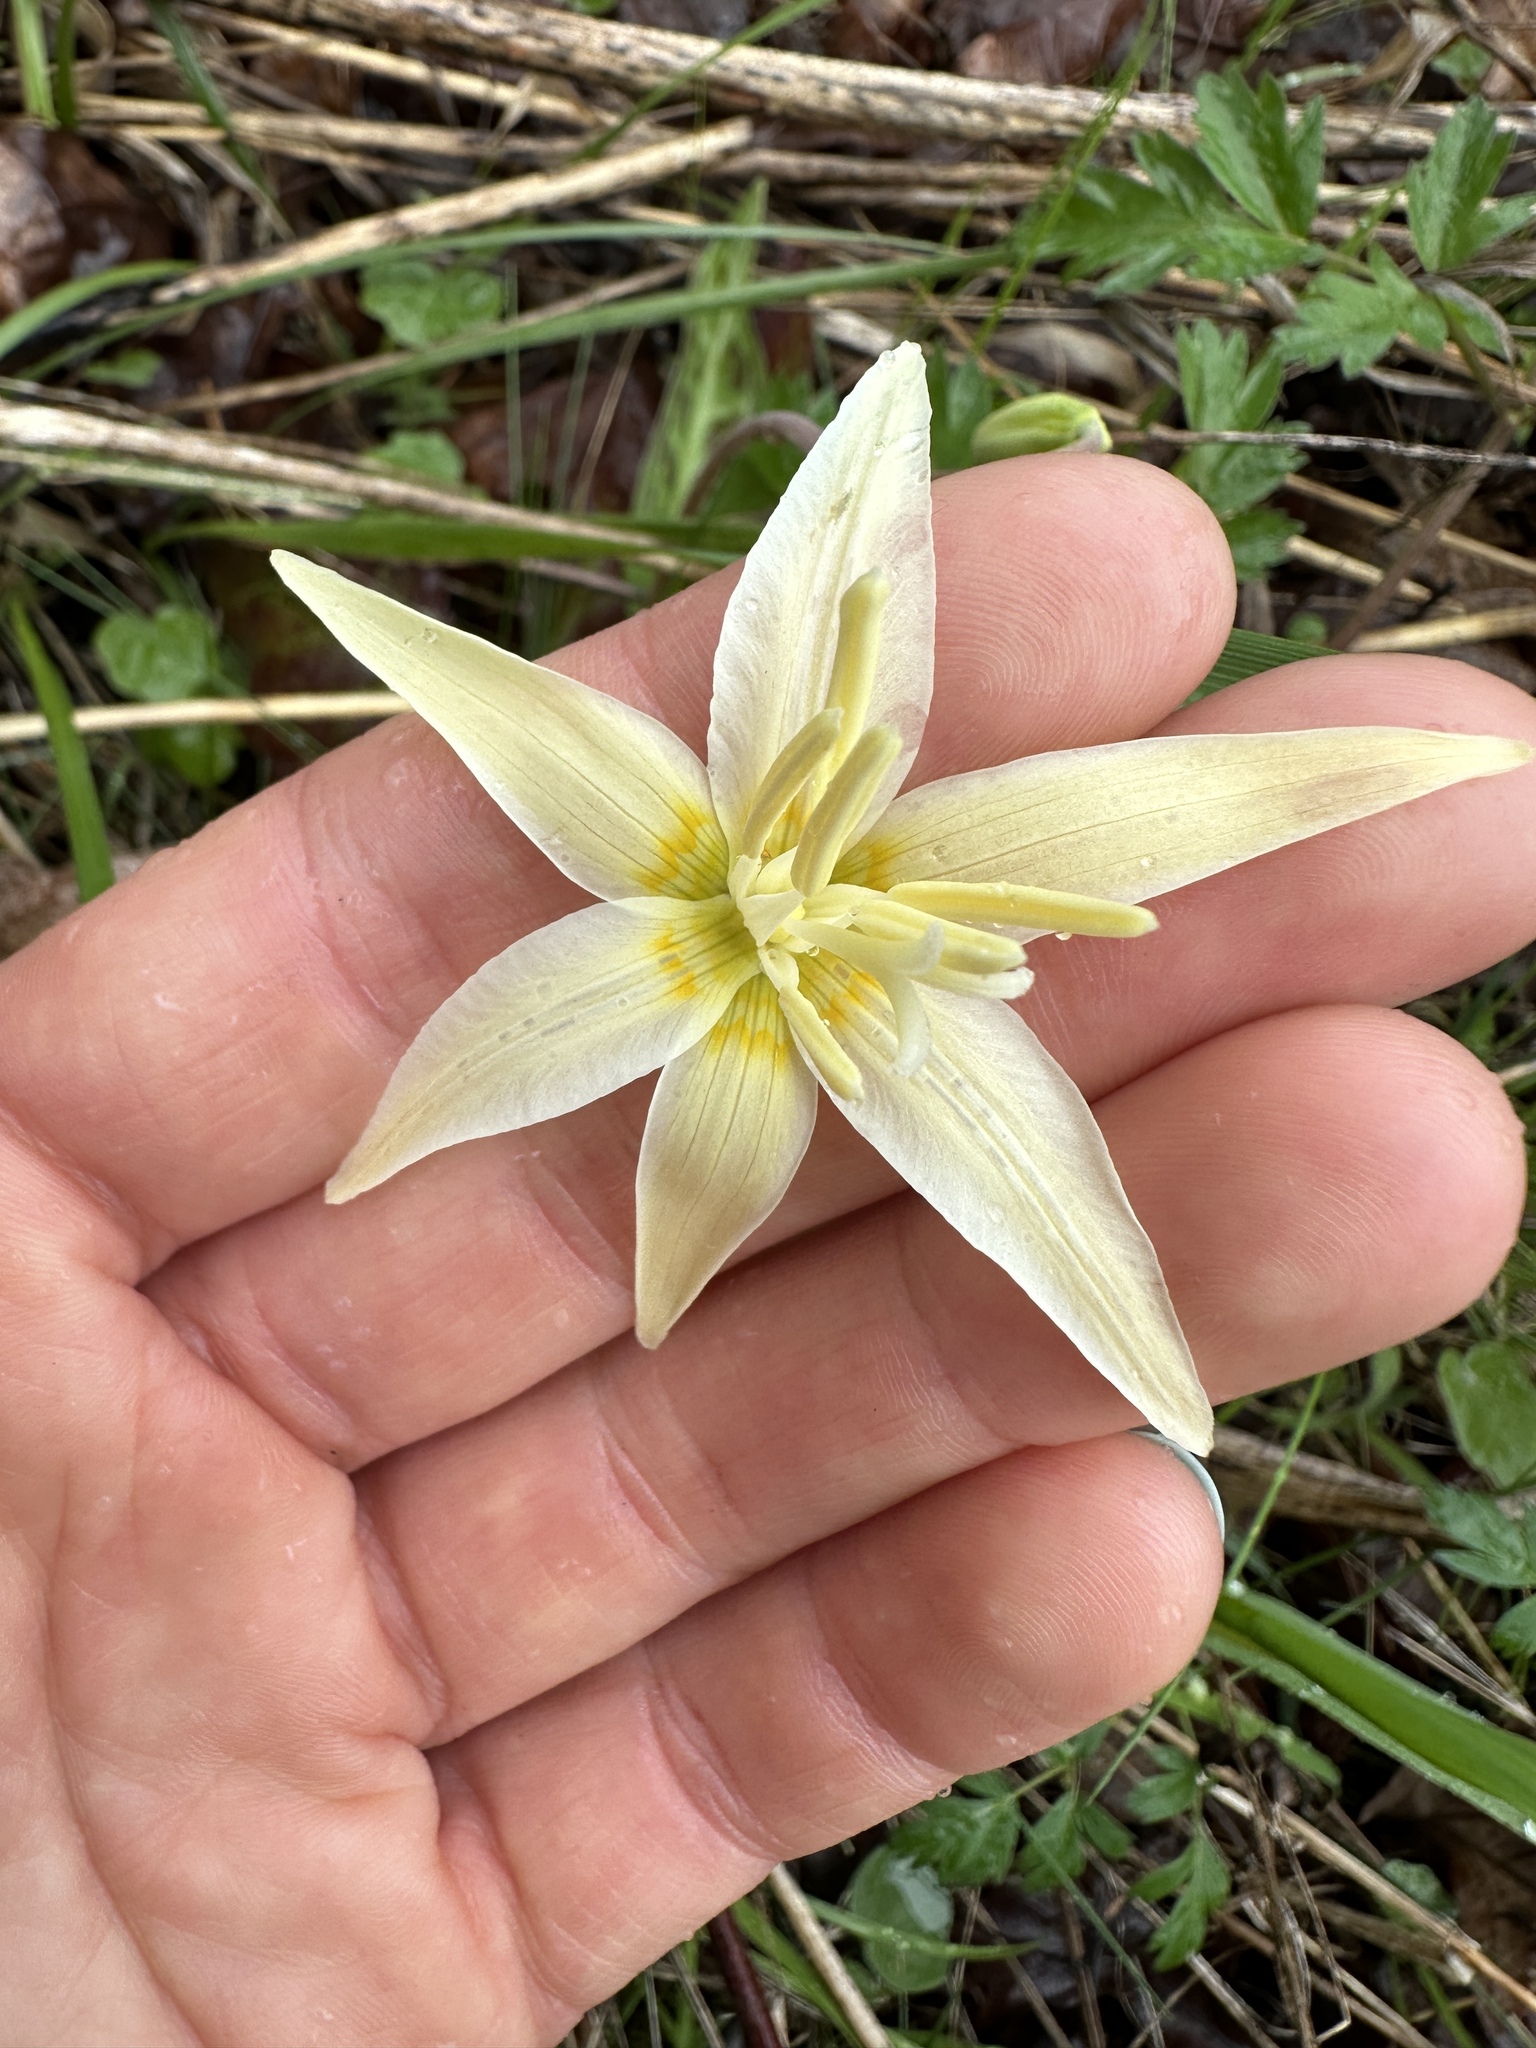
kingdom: Plantae
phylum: Tracheophyta
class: Liliopsida
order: Liliales
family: Liliaceae
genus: Erythronium
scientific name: Erythronium oregonum
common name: Giant adder's-tongue
